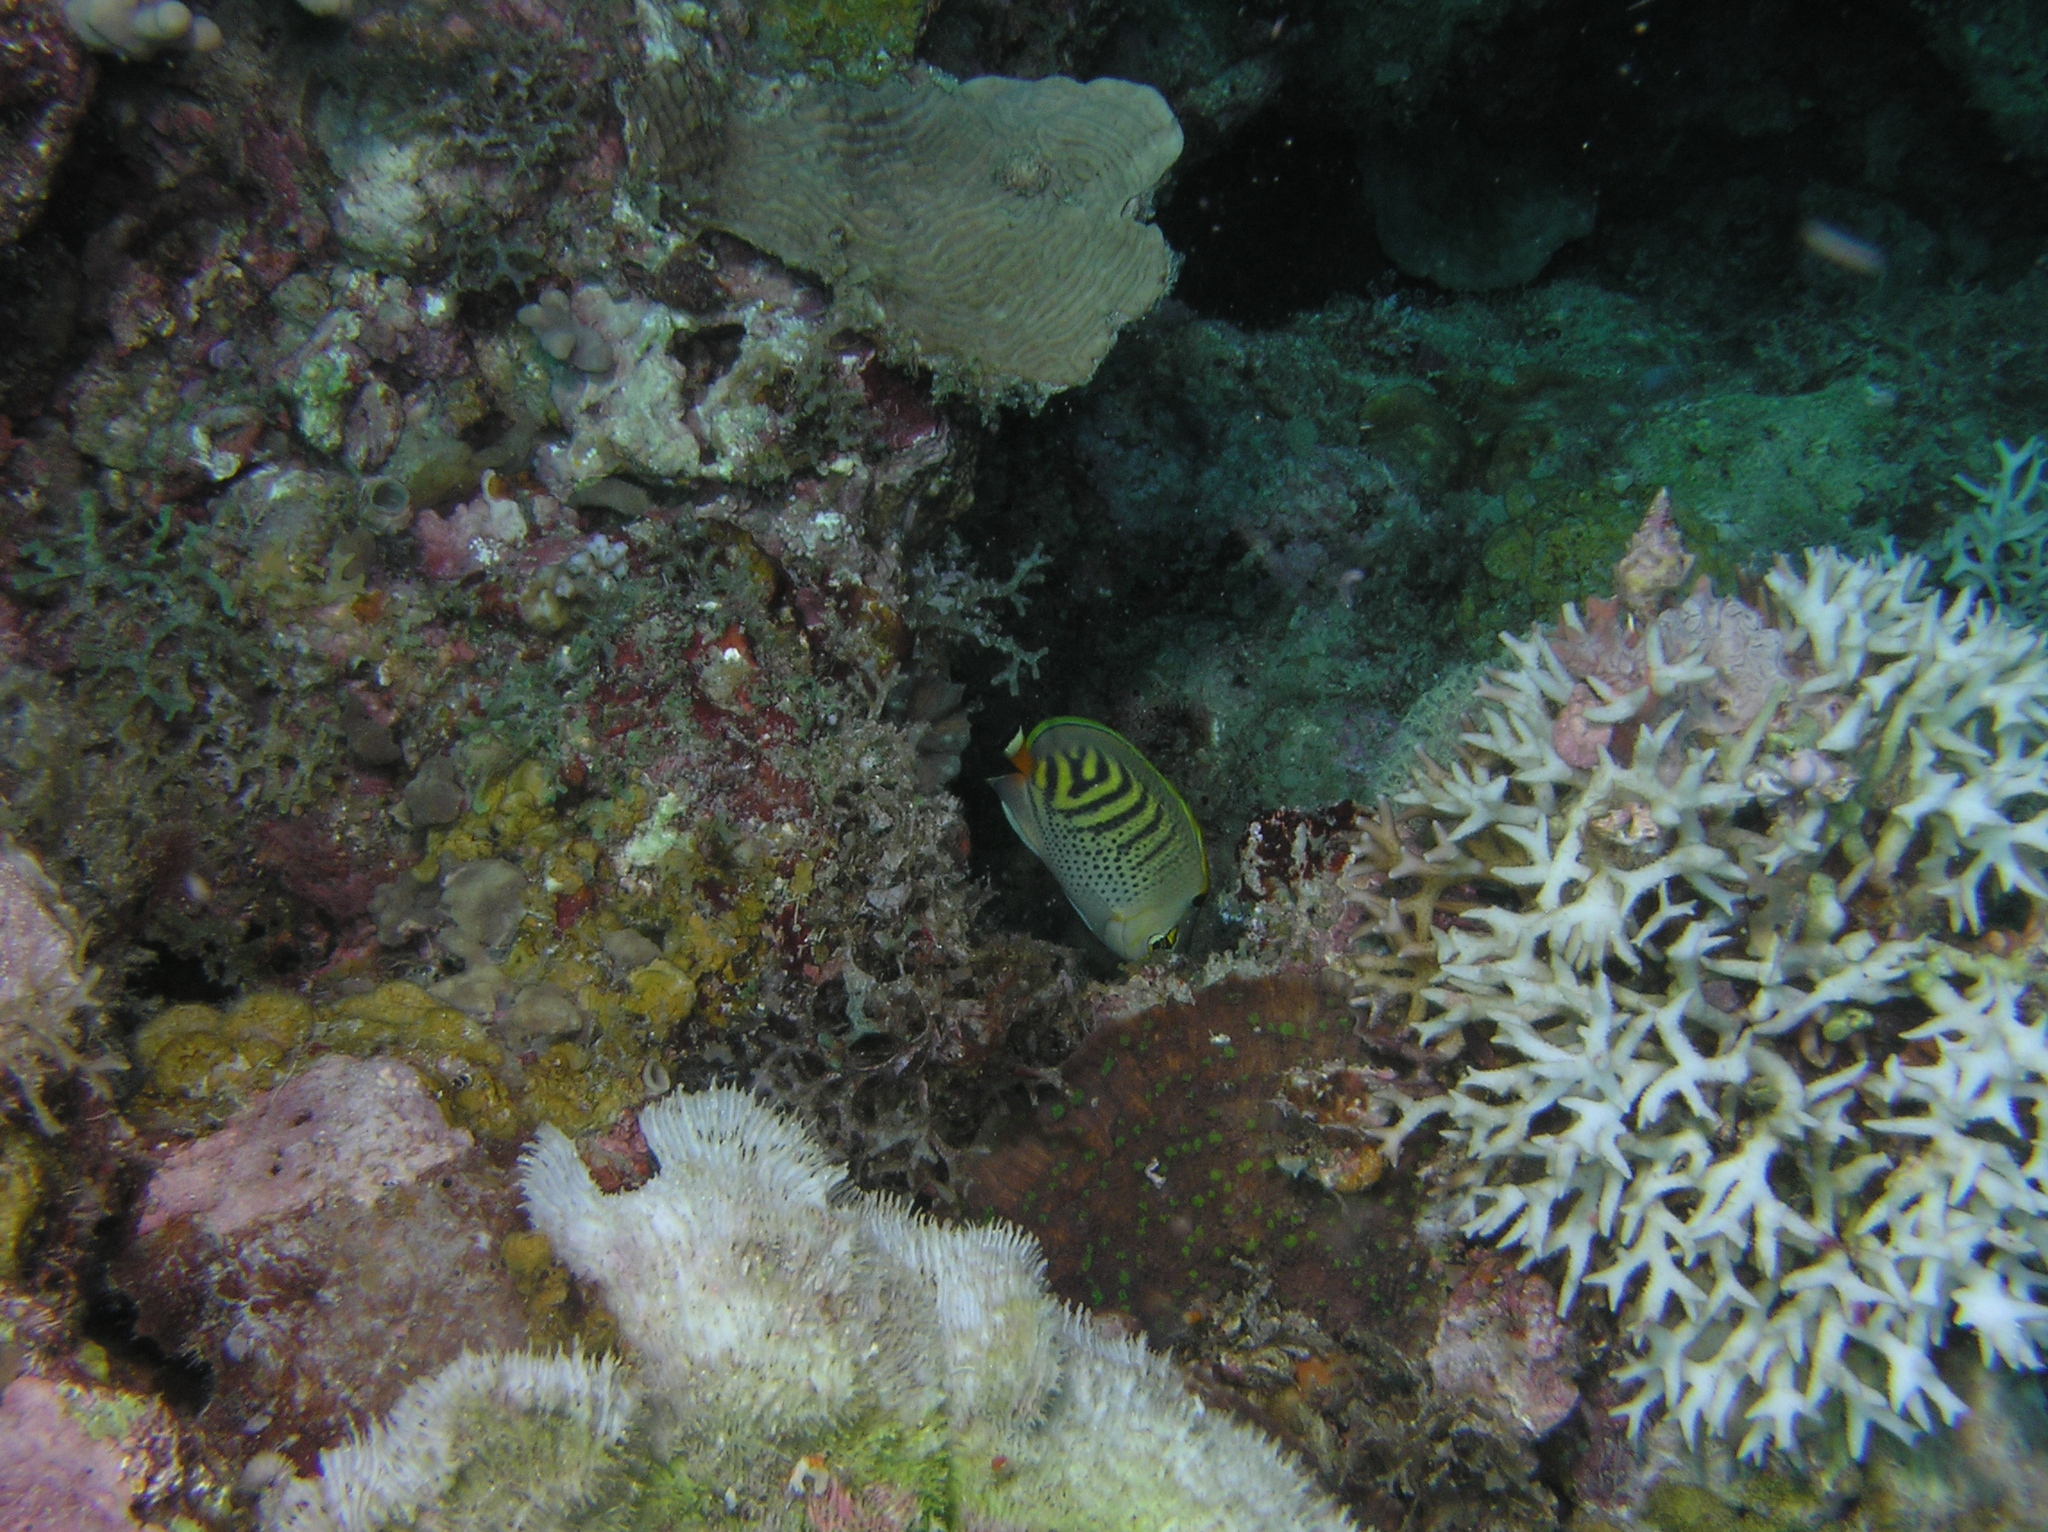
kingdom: Animalia
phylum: Chordata
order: Perciformes
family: Chaetodontidae
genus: Chaetodon
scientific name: Chaetodon
